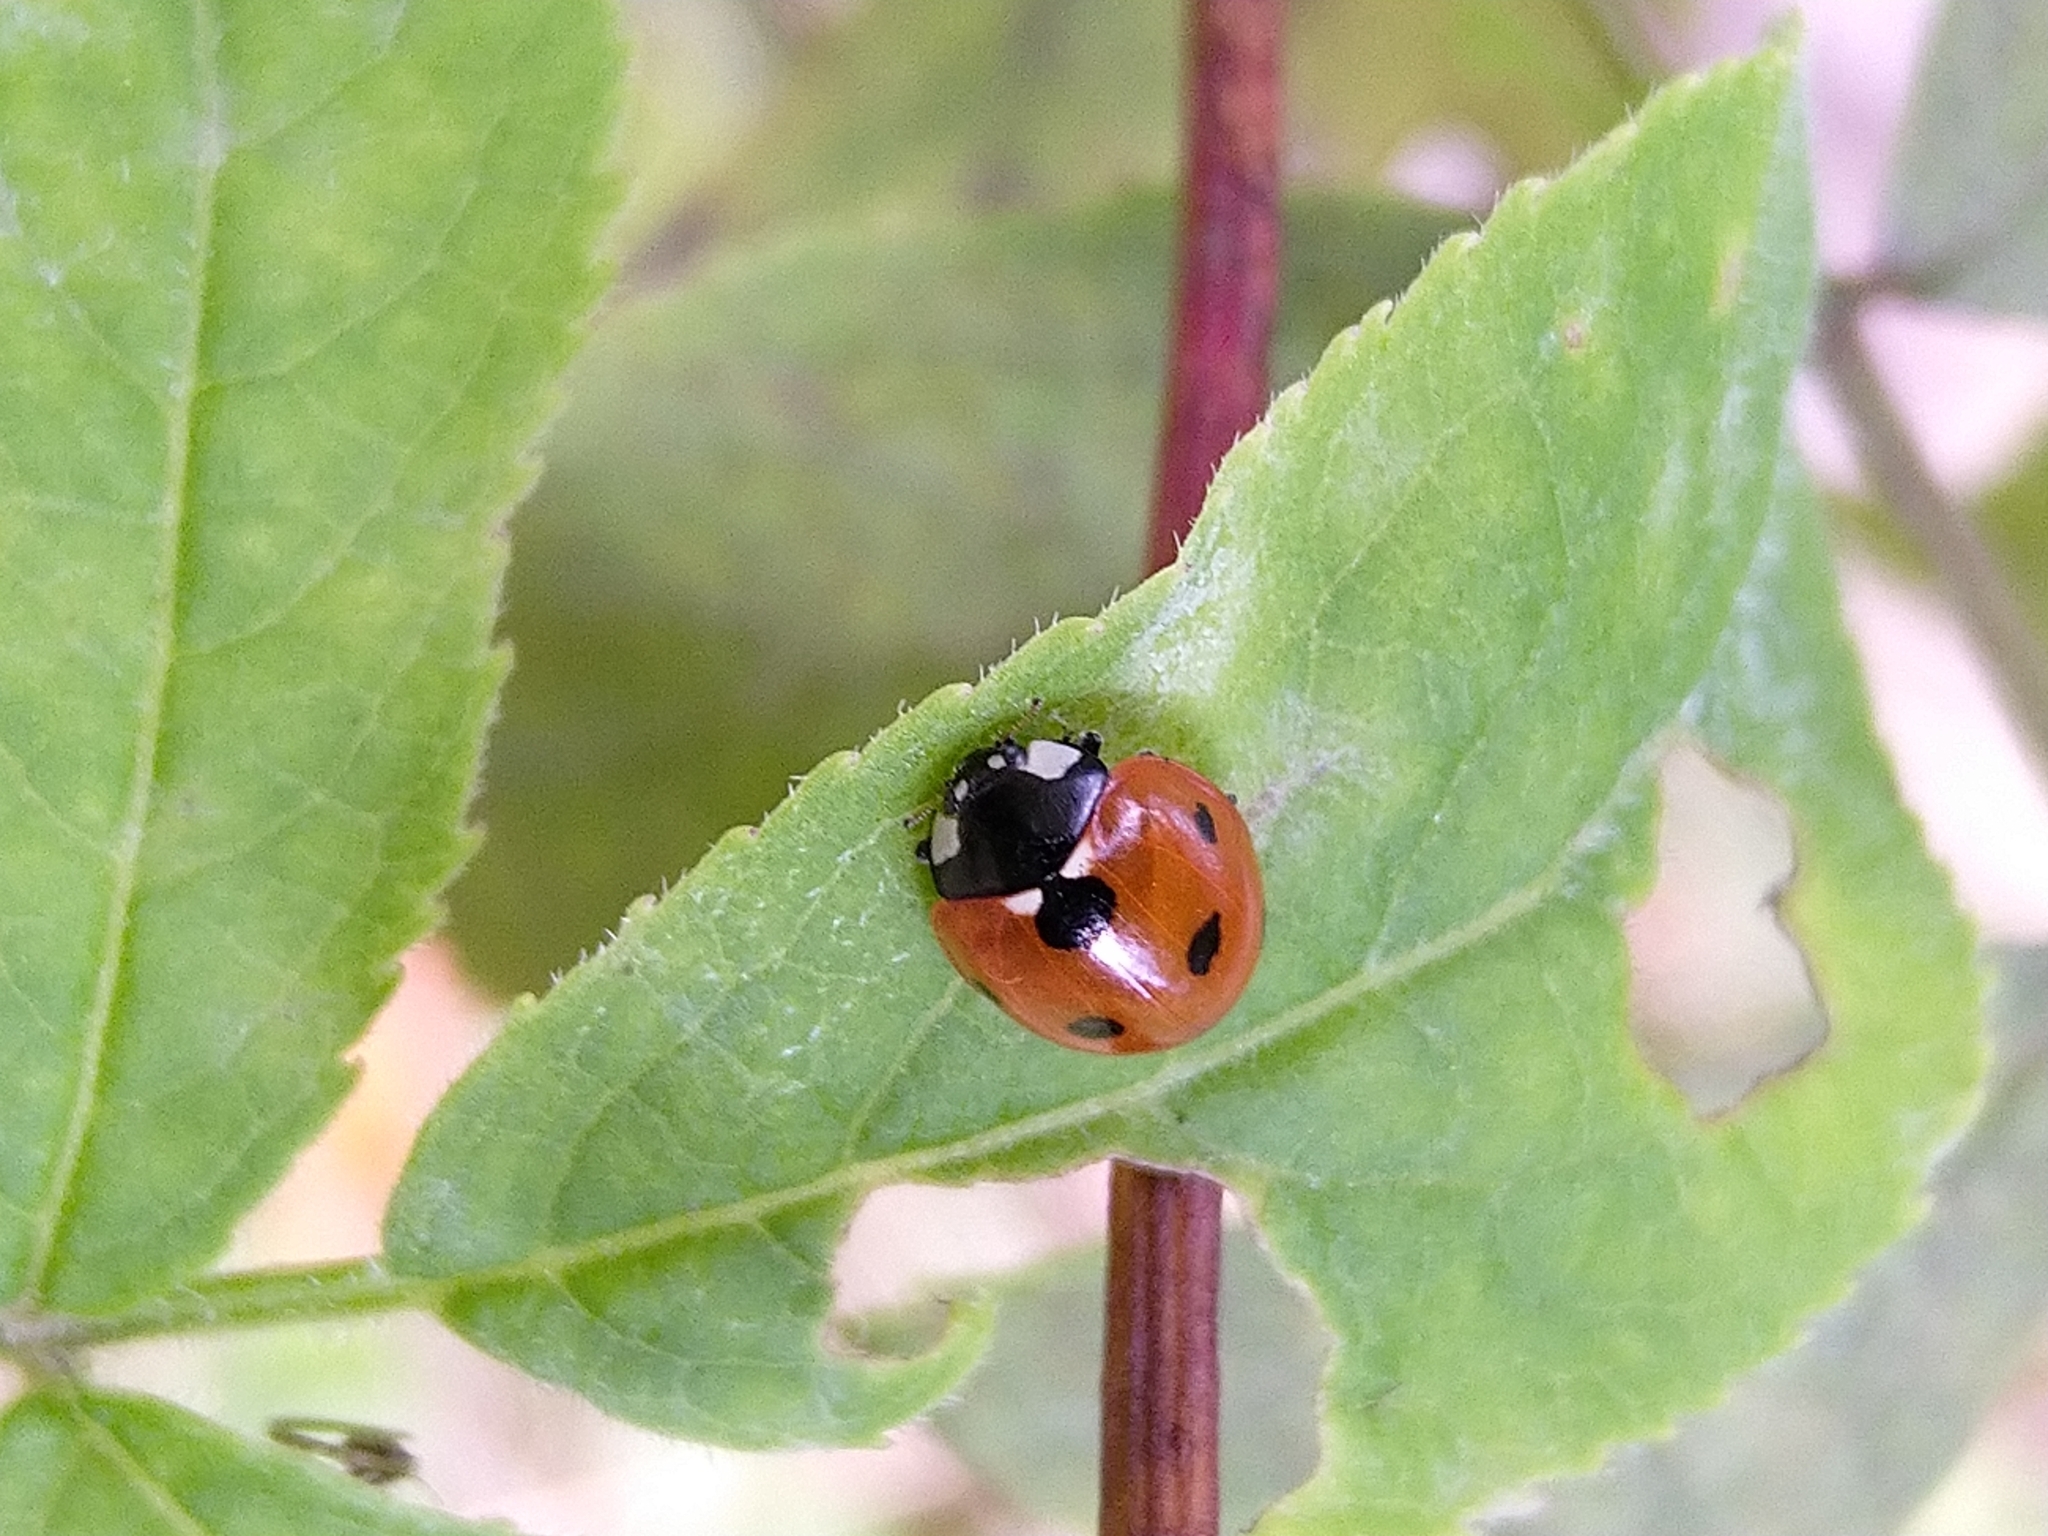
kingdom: Animalia
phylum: Arthropoda
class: Insecta
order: Coleoptera
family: Coccinellidae
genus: Coccinella
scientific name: Coccinella septempunctata
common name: Sevenspotted lady beetle
